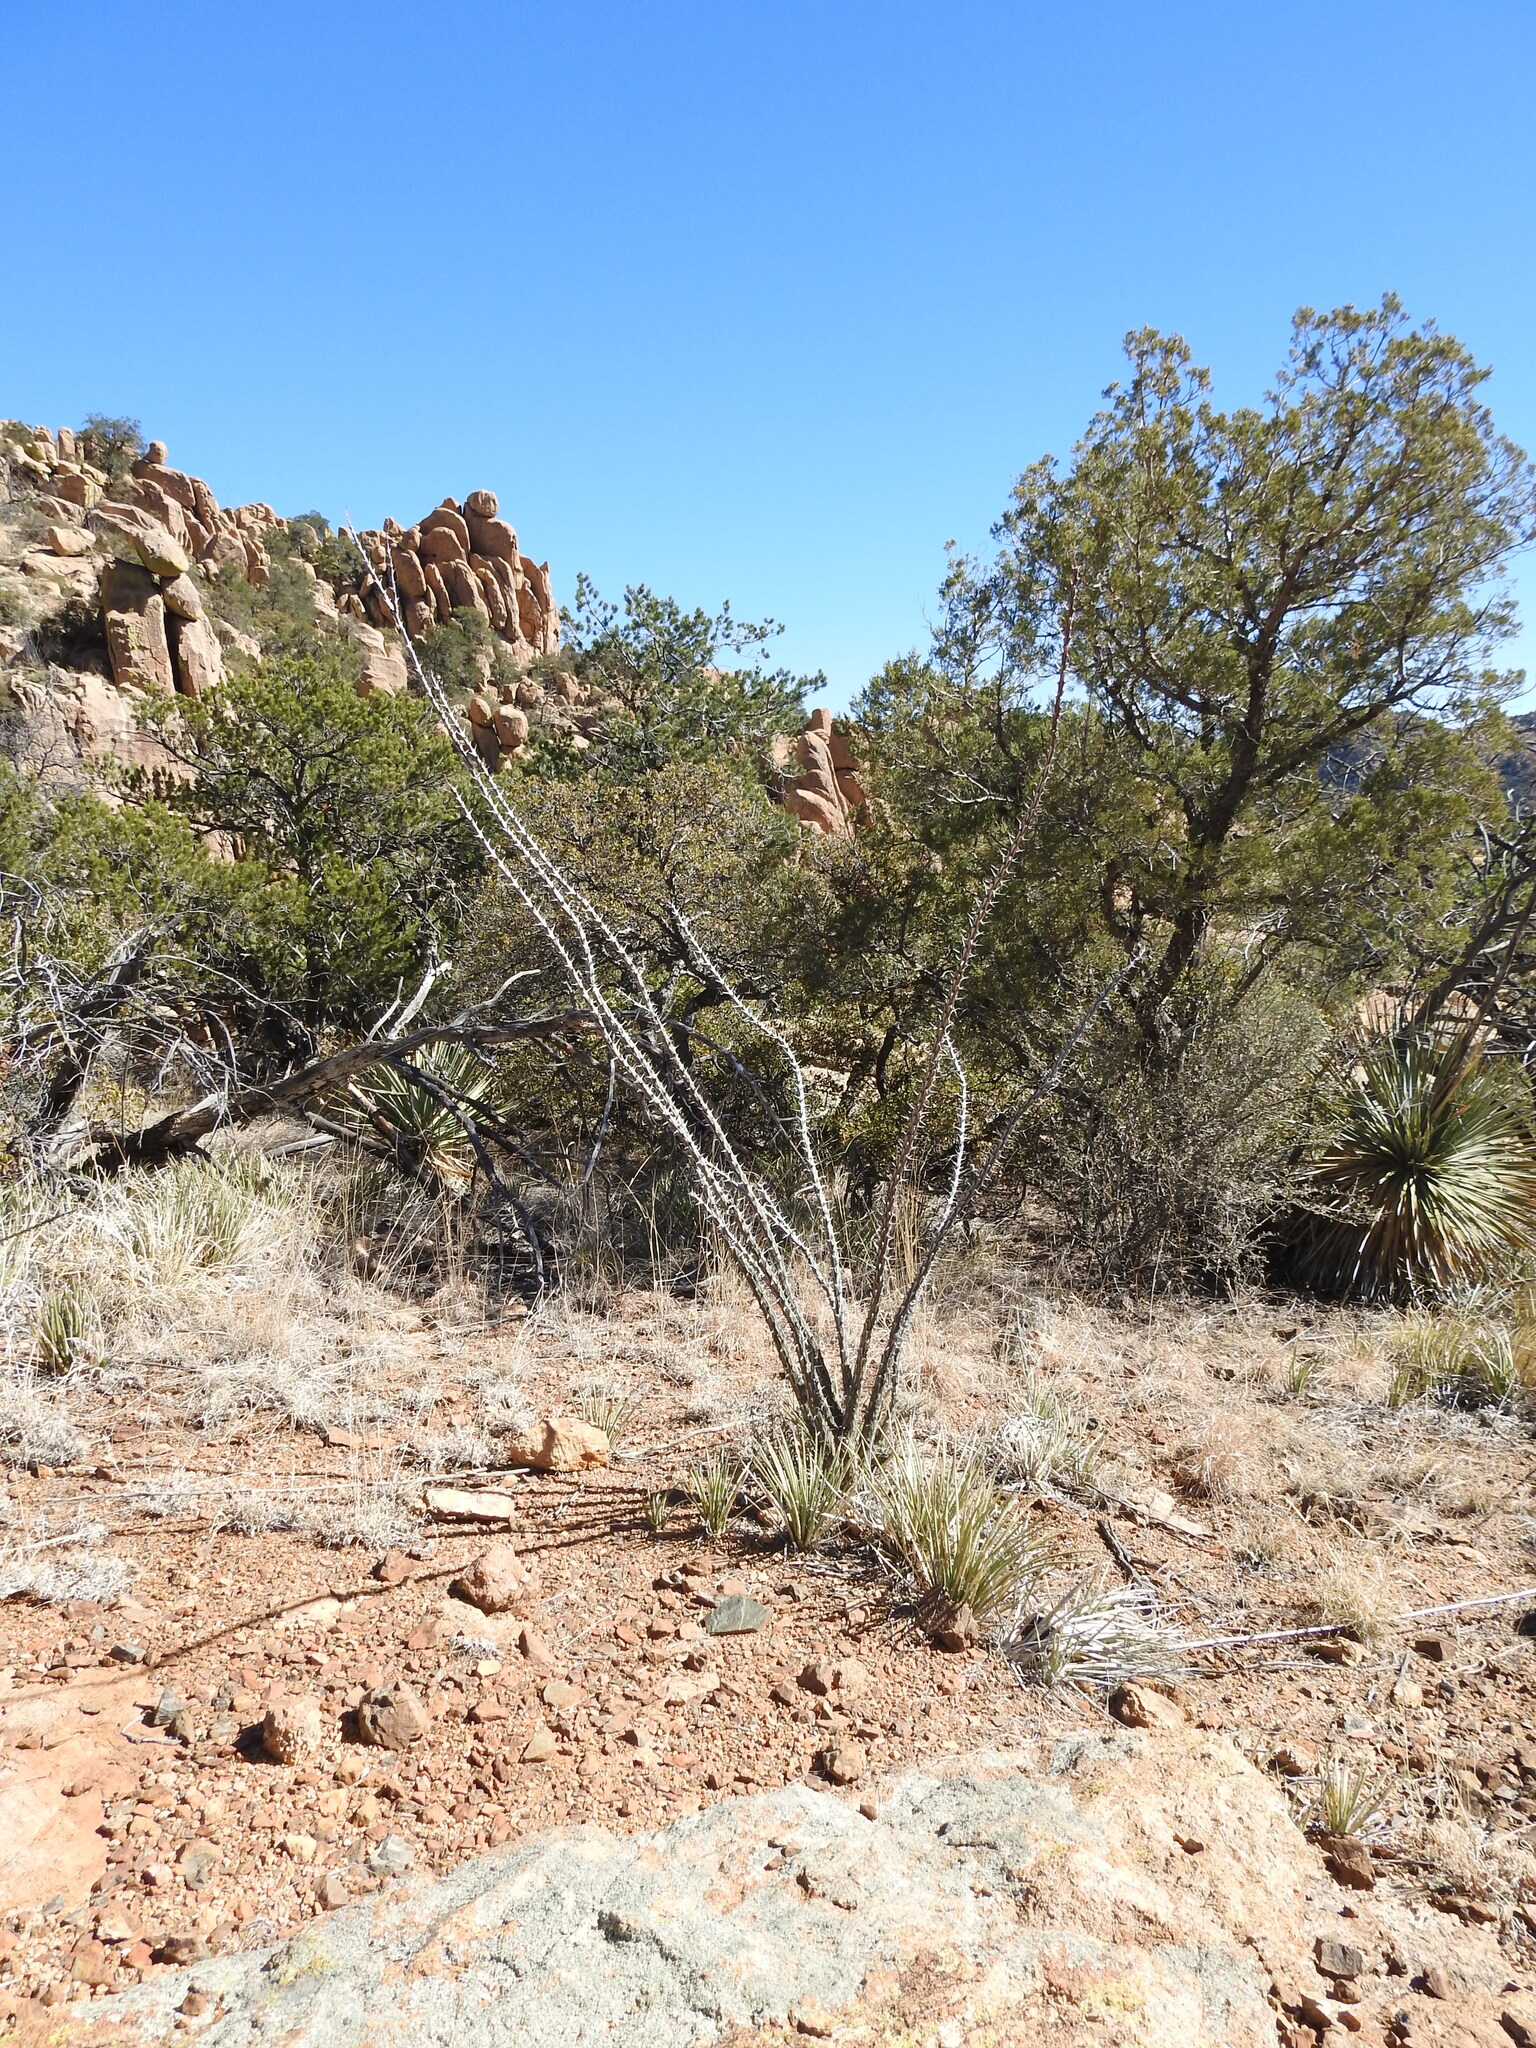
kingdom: Plantae
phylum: Tracheophyta
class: Magnoliopsida
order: Ericales
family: Fouquieriaceae
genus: Fouquieria
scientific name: Fouquieria splendens
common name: Vine-cactus
